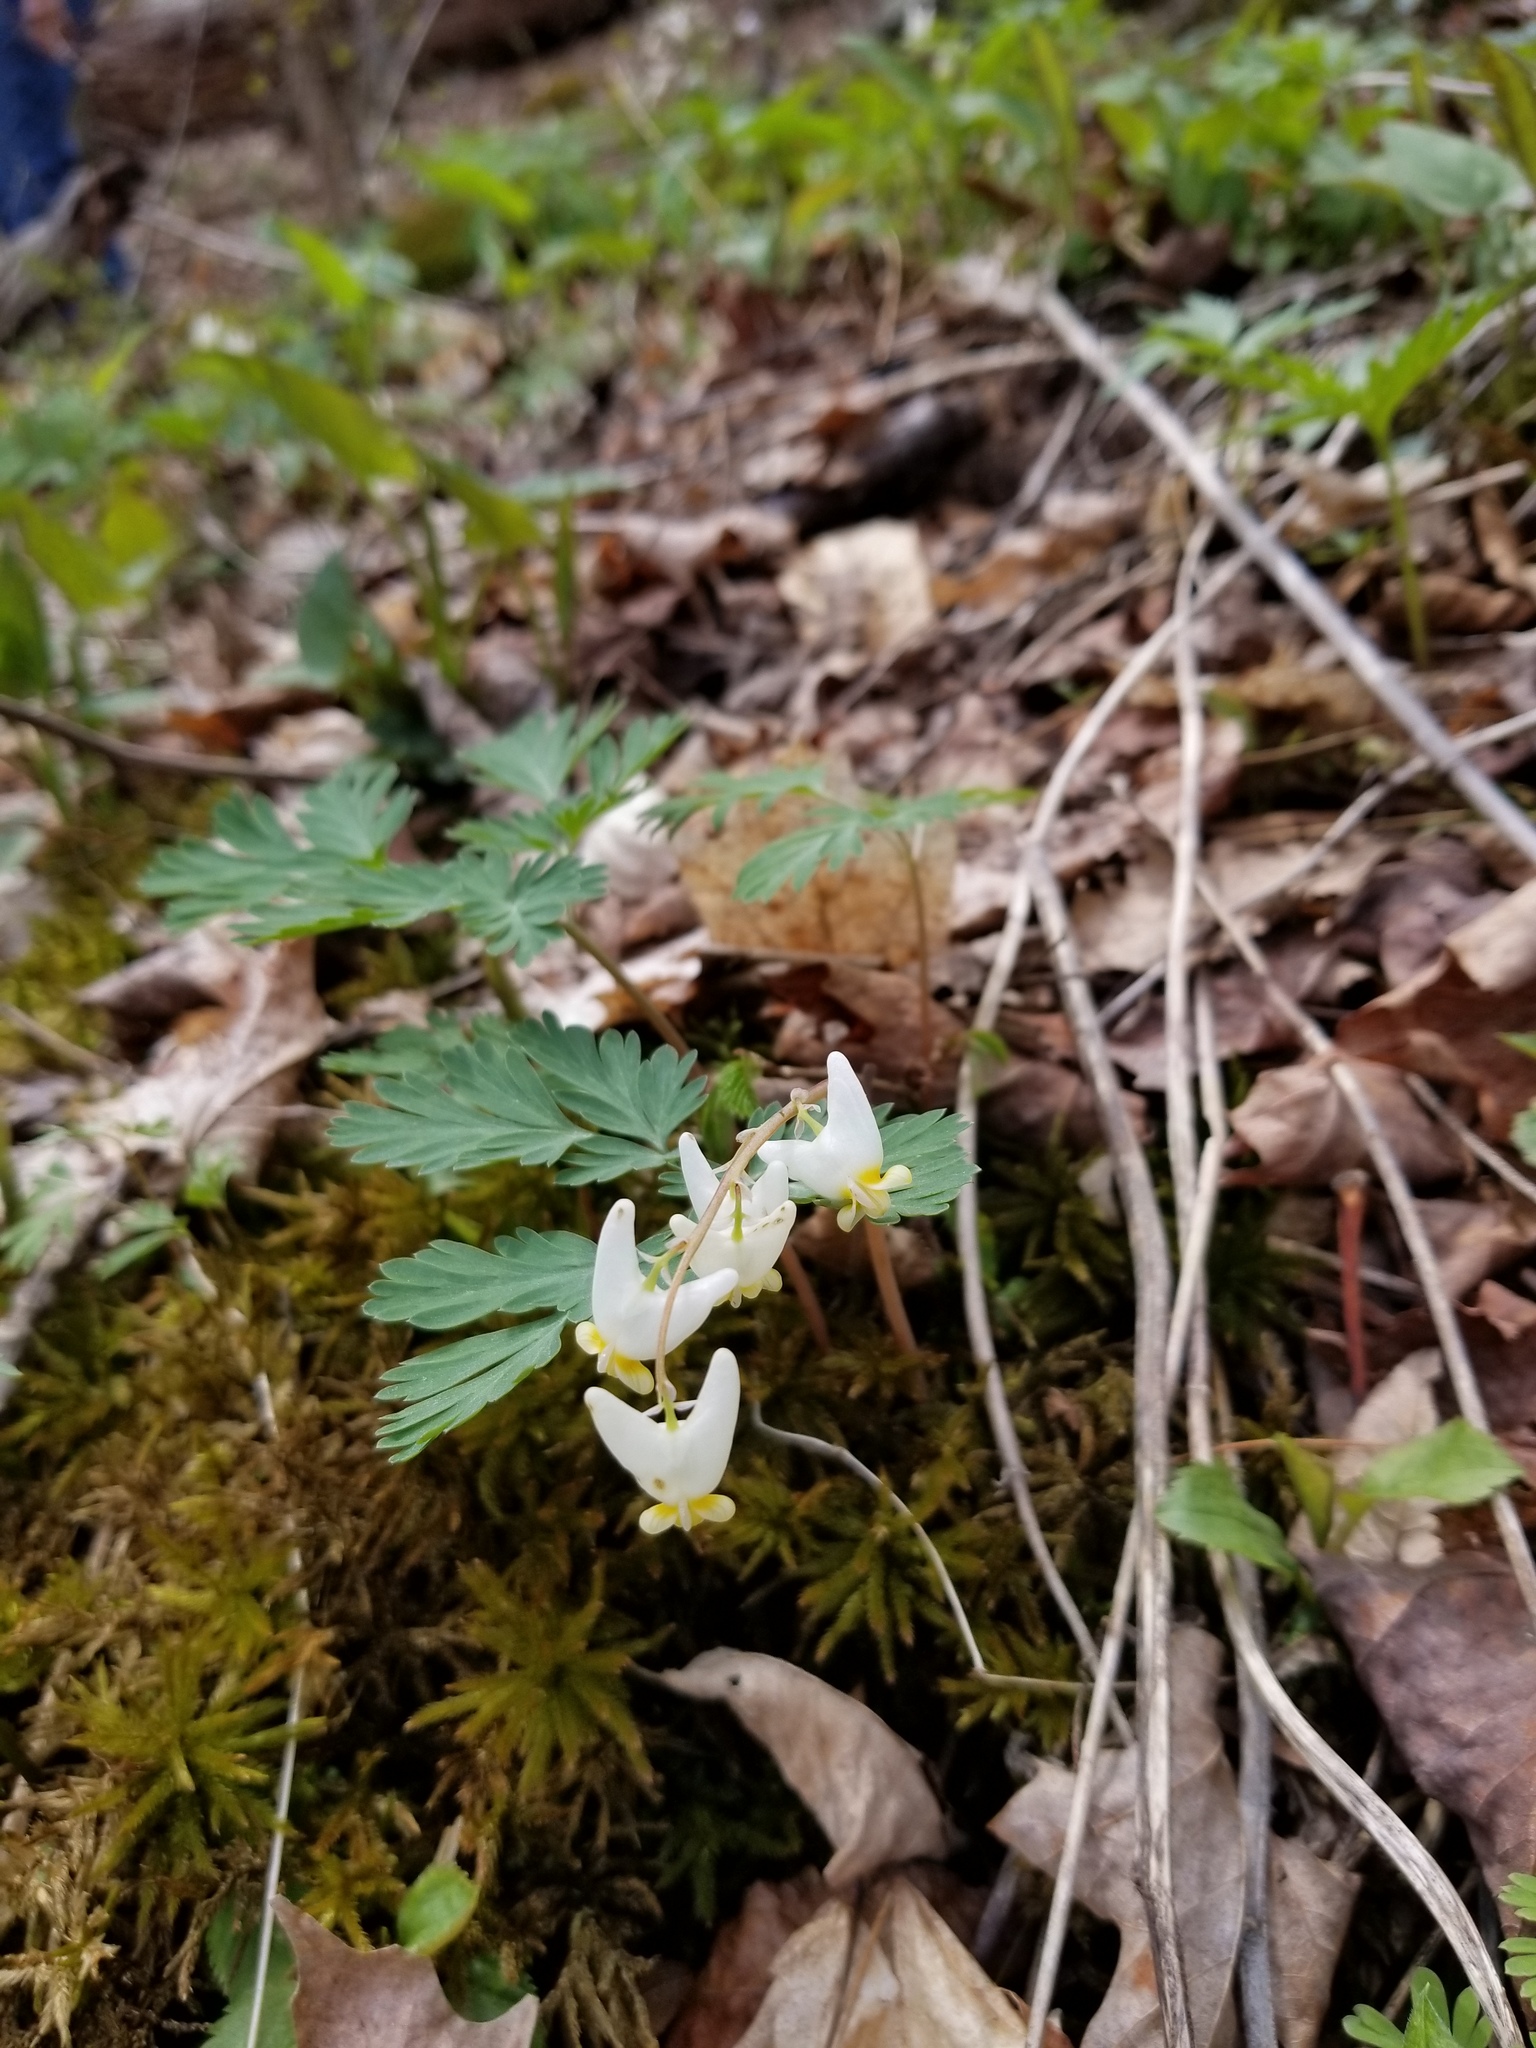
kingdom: Plantae
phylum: Tracheophyta
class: Magnoliopsida
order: Ranunculales
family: Papaveraceae
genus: Dicentra
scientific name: Dicentra cucullaria
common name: Dutchman's breeches
